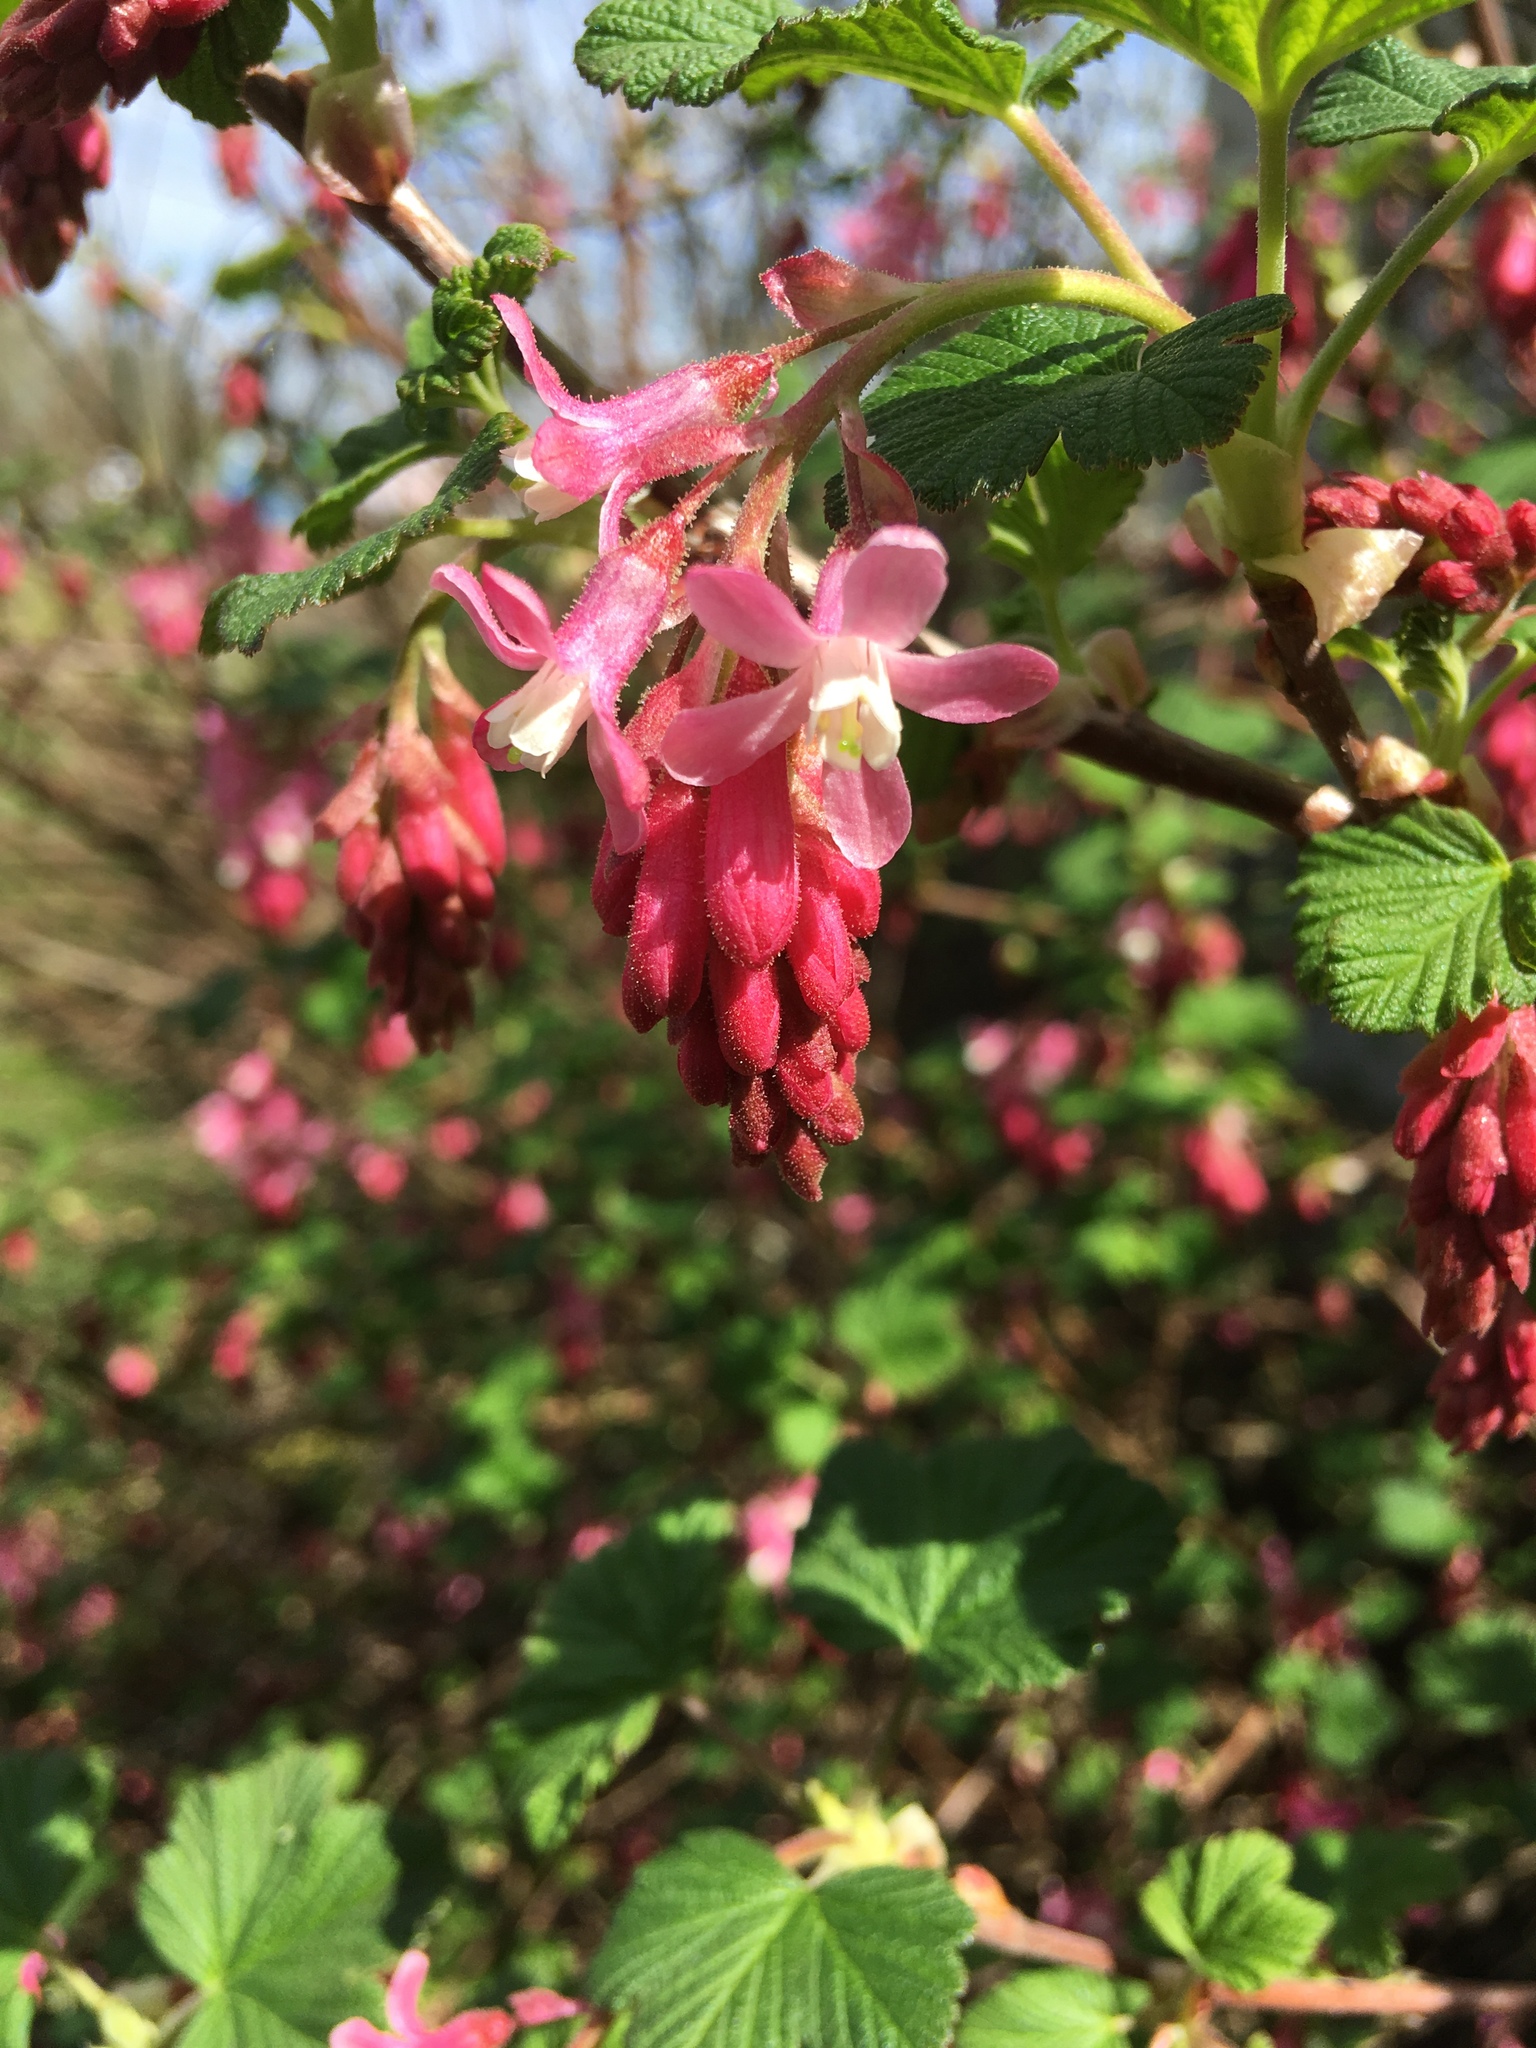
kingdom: Plantae
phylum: Tracheophyta
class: Magnoliopsida
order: Saxifragales
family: Grossulariaceae
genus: Ribes
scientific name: Ribes sanguineum
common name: Flowering currant
